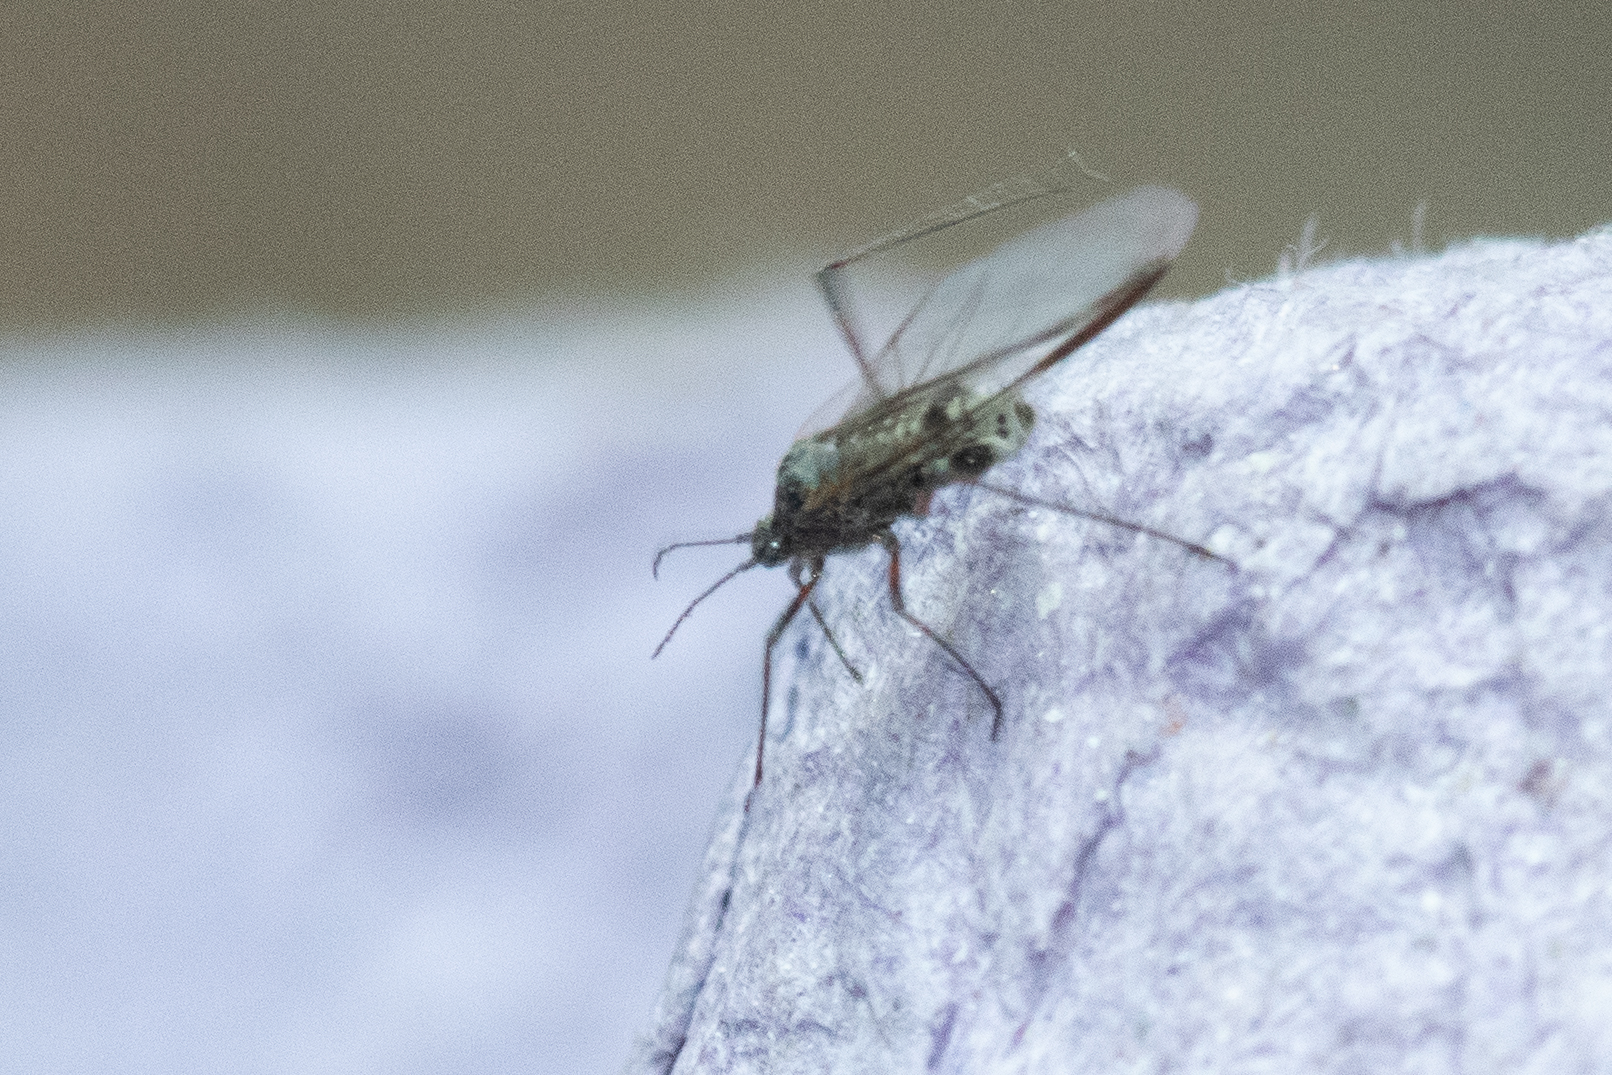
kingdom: Animalia
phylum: Arthropoda
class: Insecta
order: Hemiptera
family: Aphididae
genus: Tuberolachnus
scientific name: Tuberolachnus salignus
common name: Giant willow aphid
